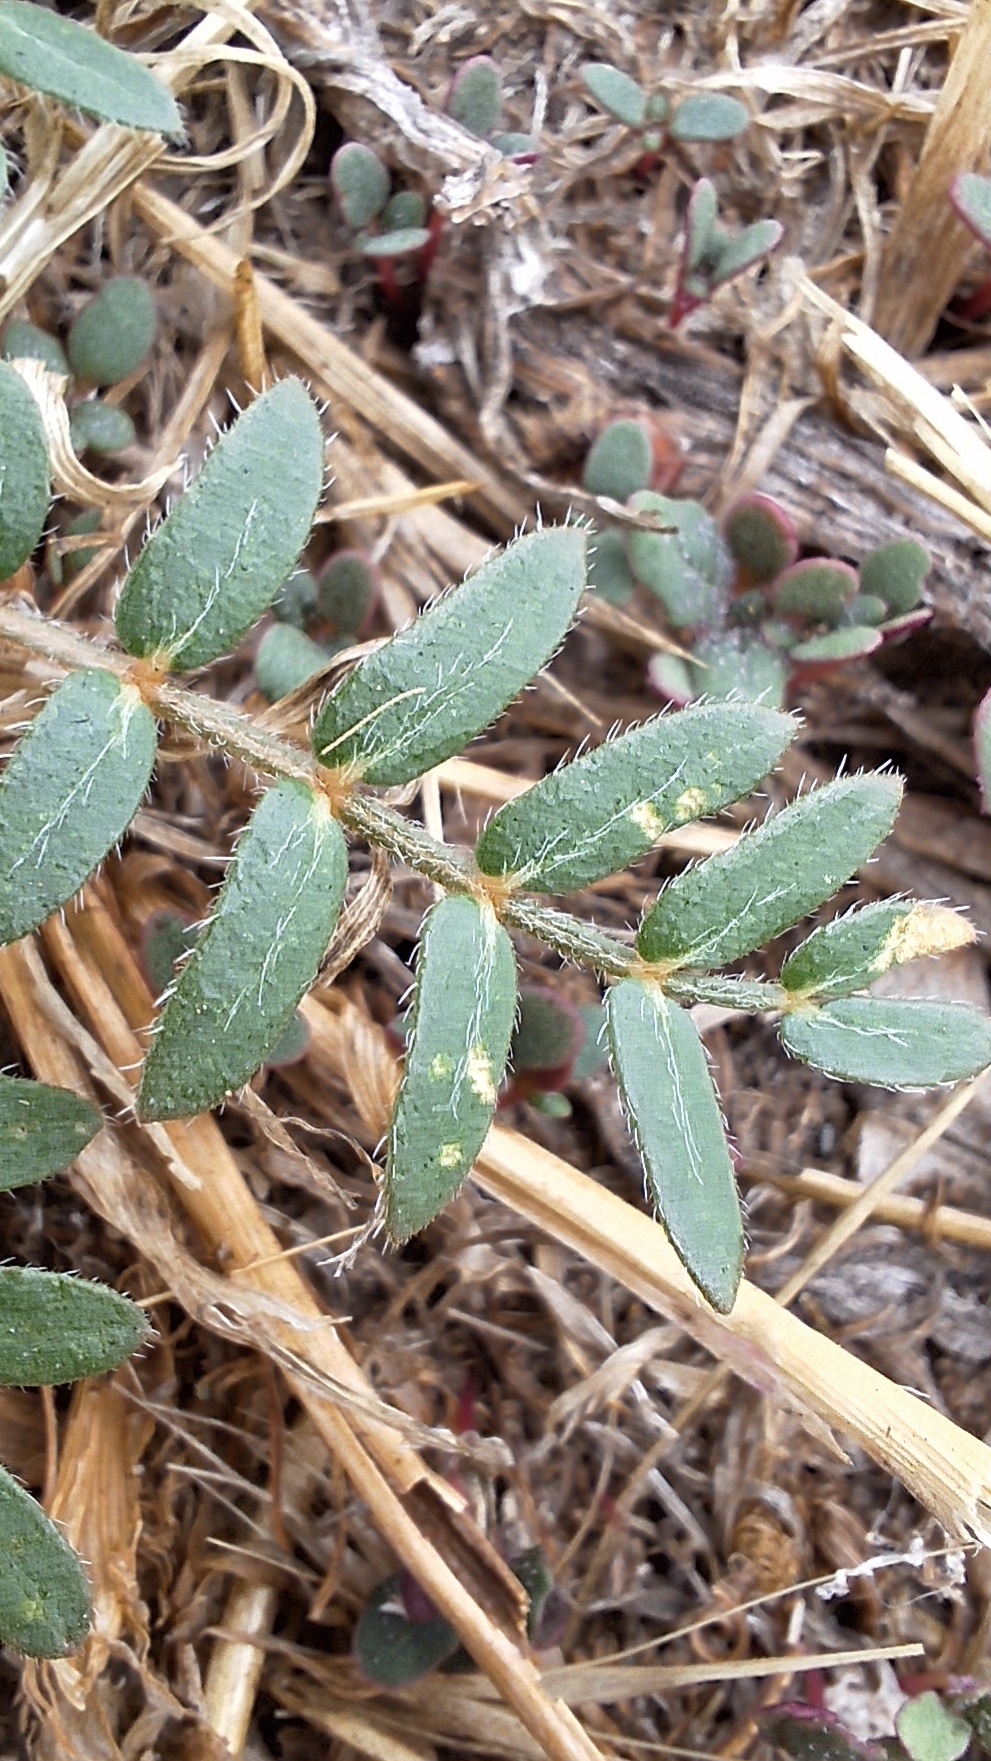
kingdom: Plantae
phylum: Tracheophyta
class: Magnoliopsida
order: Zygophyllales
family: Zygophyllaceae
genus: Tribulus
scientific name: Tribulus terrestris
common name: Puncturevine
